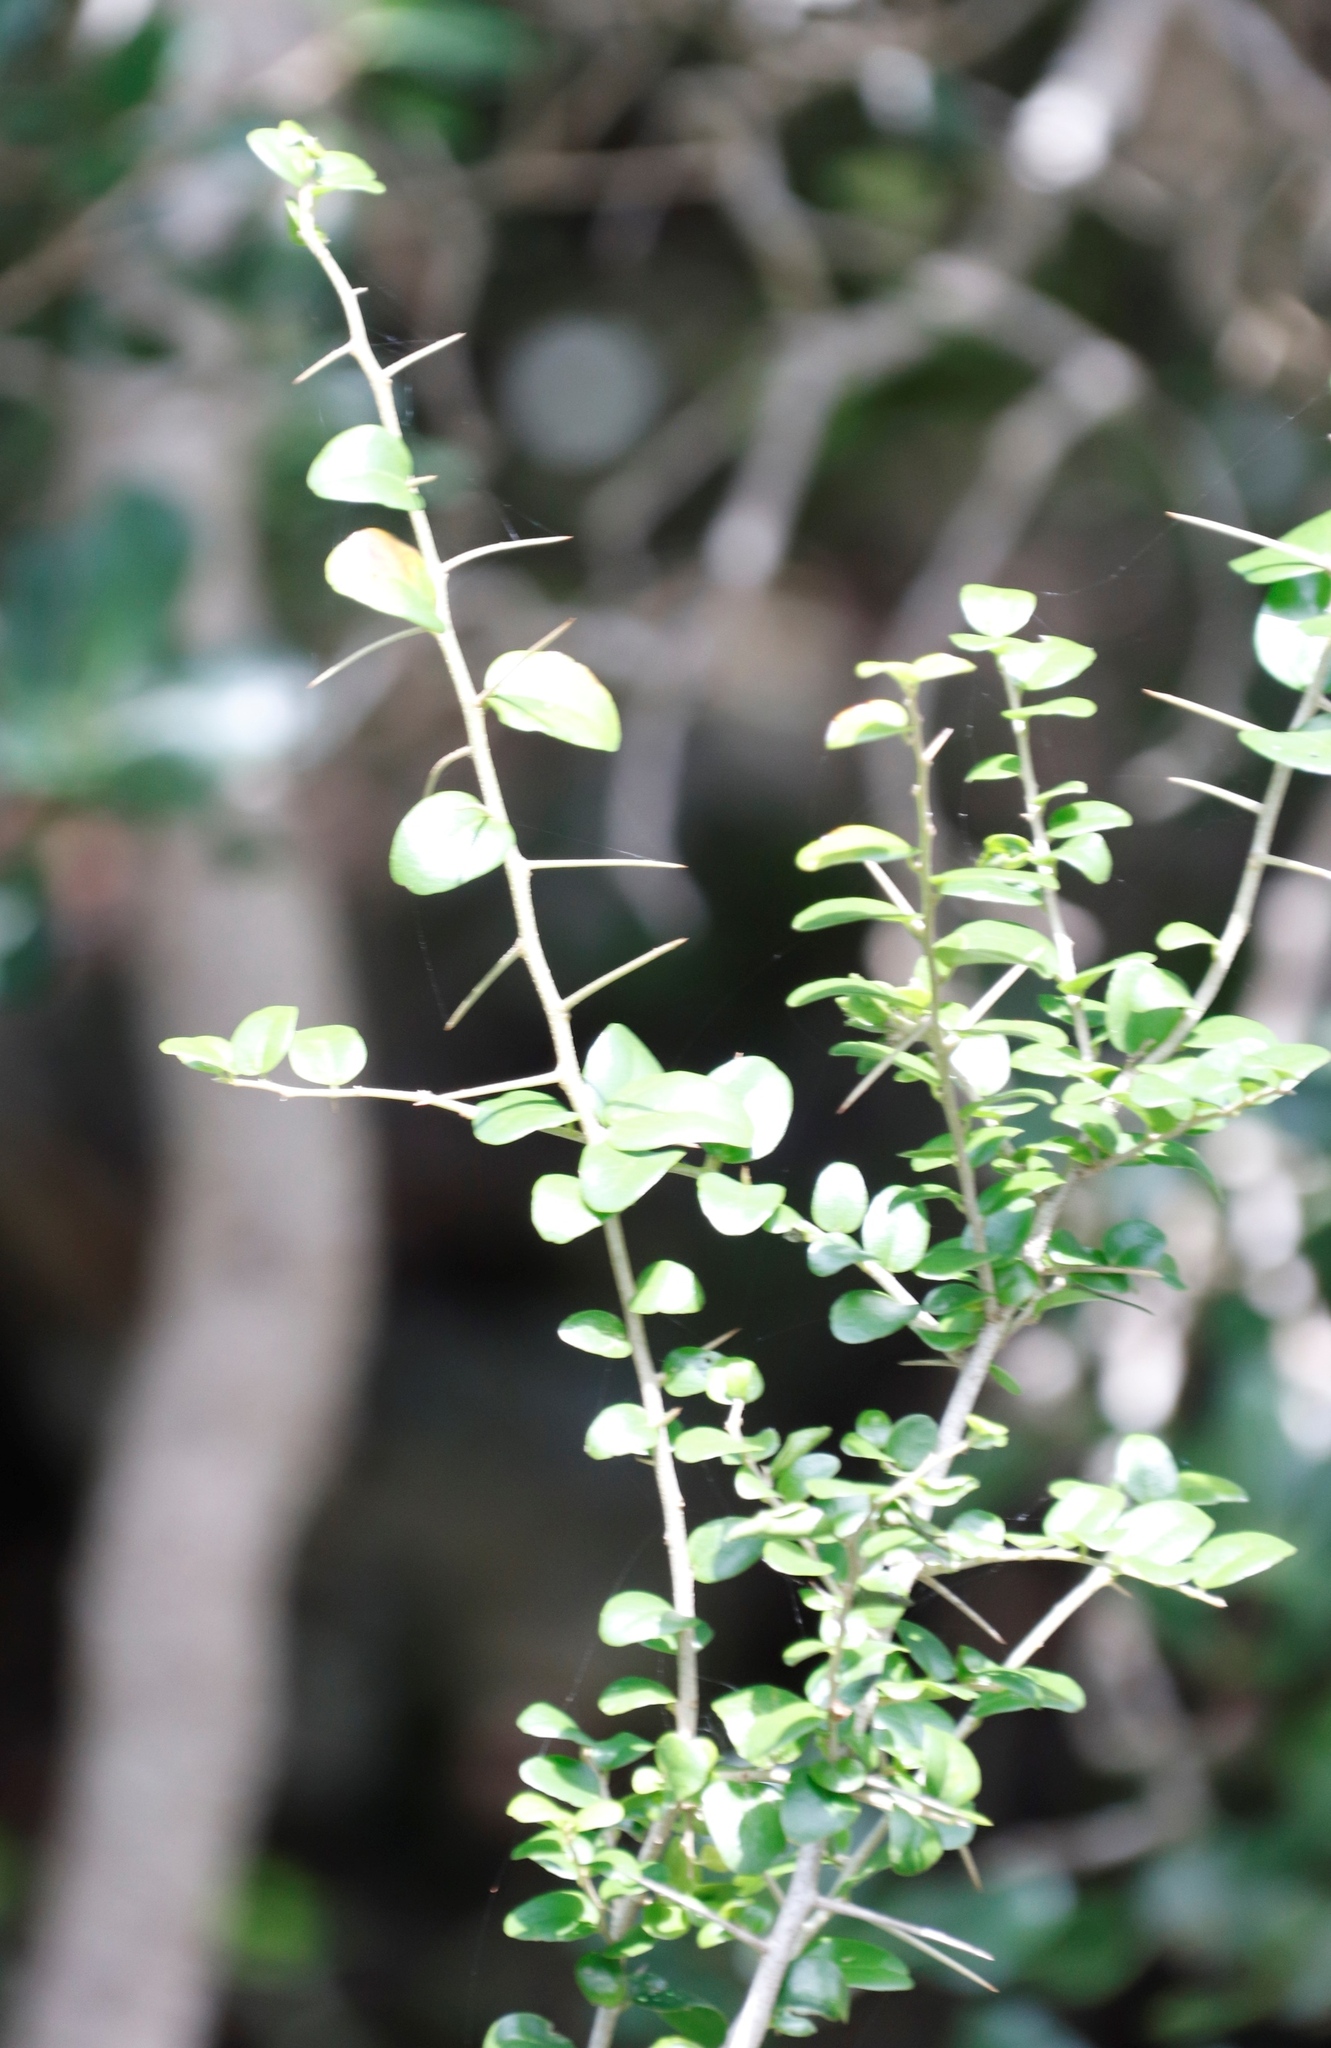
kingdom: Plantae
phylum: Tracheophyta
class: Magnoliopsida
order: Malpighiales
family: Salicaceae
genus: Dovyalis
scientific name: Dovyalis rhamnoides
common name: Sourberry
